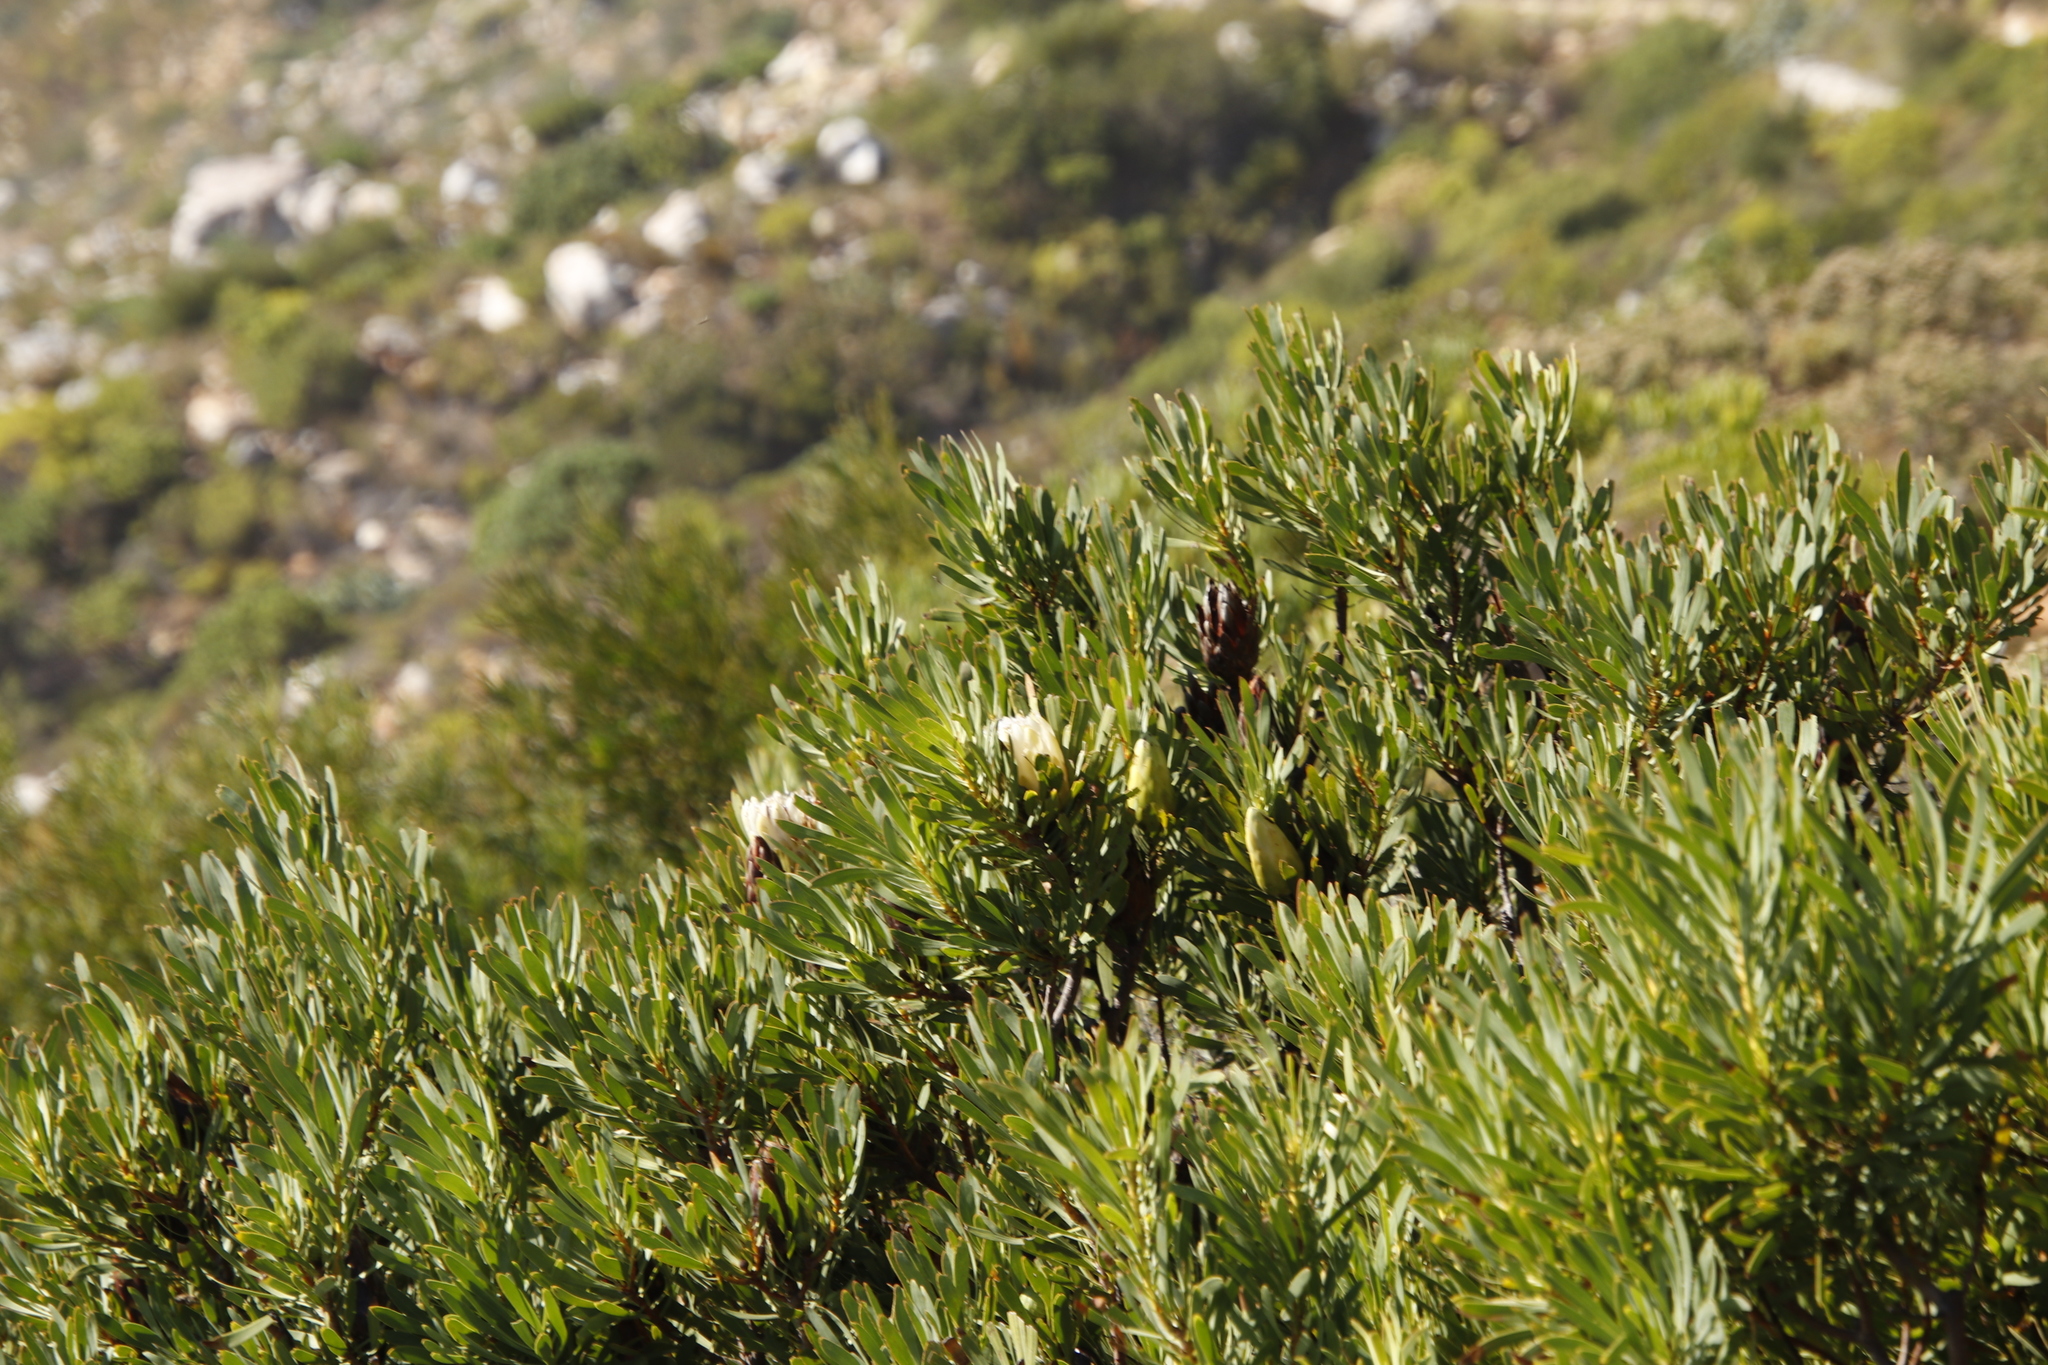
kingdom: Plantae
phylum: Tracheophyta
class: Magnoliopsida
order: Proteales
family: Proteaceae
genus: Protea
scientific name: Protea repens
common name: Sugarbush
